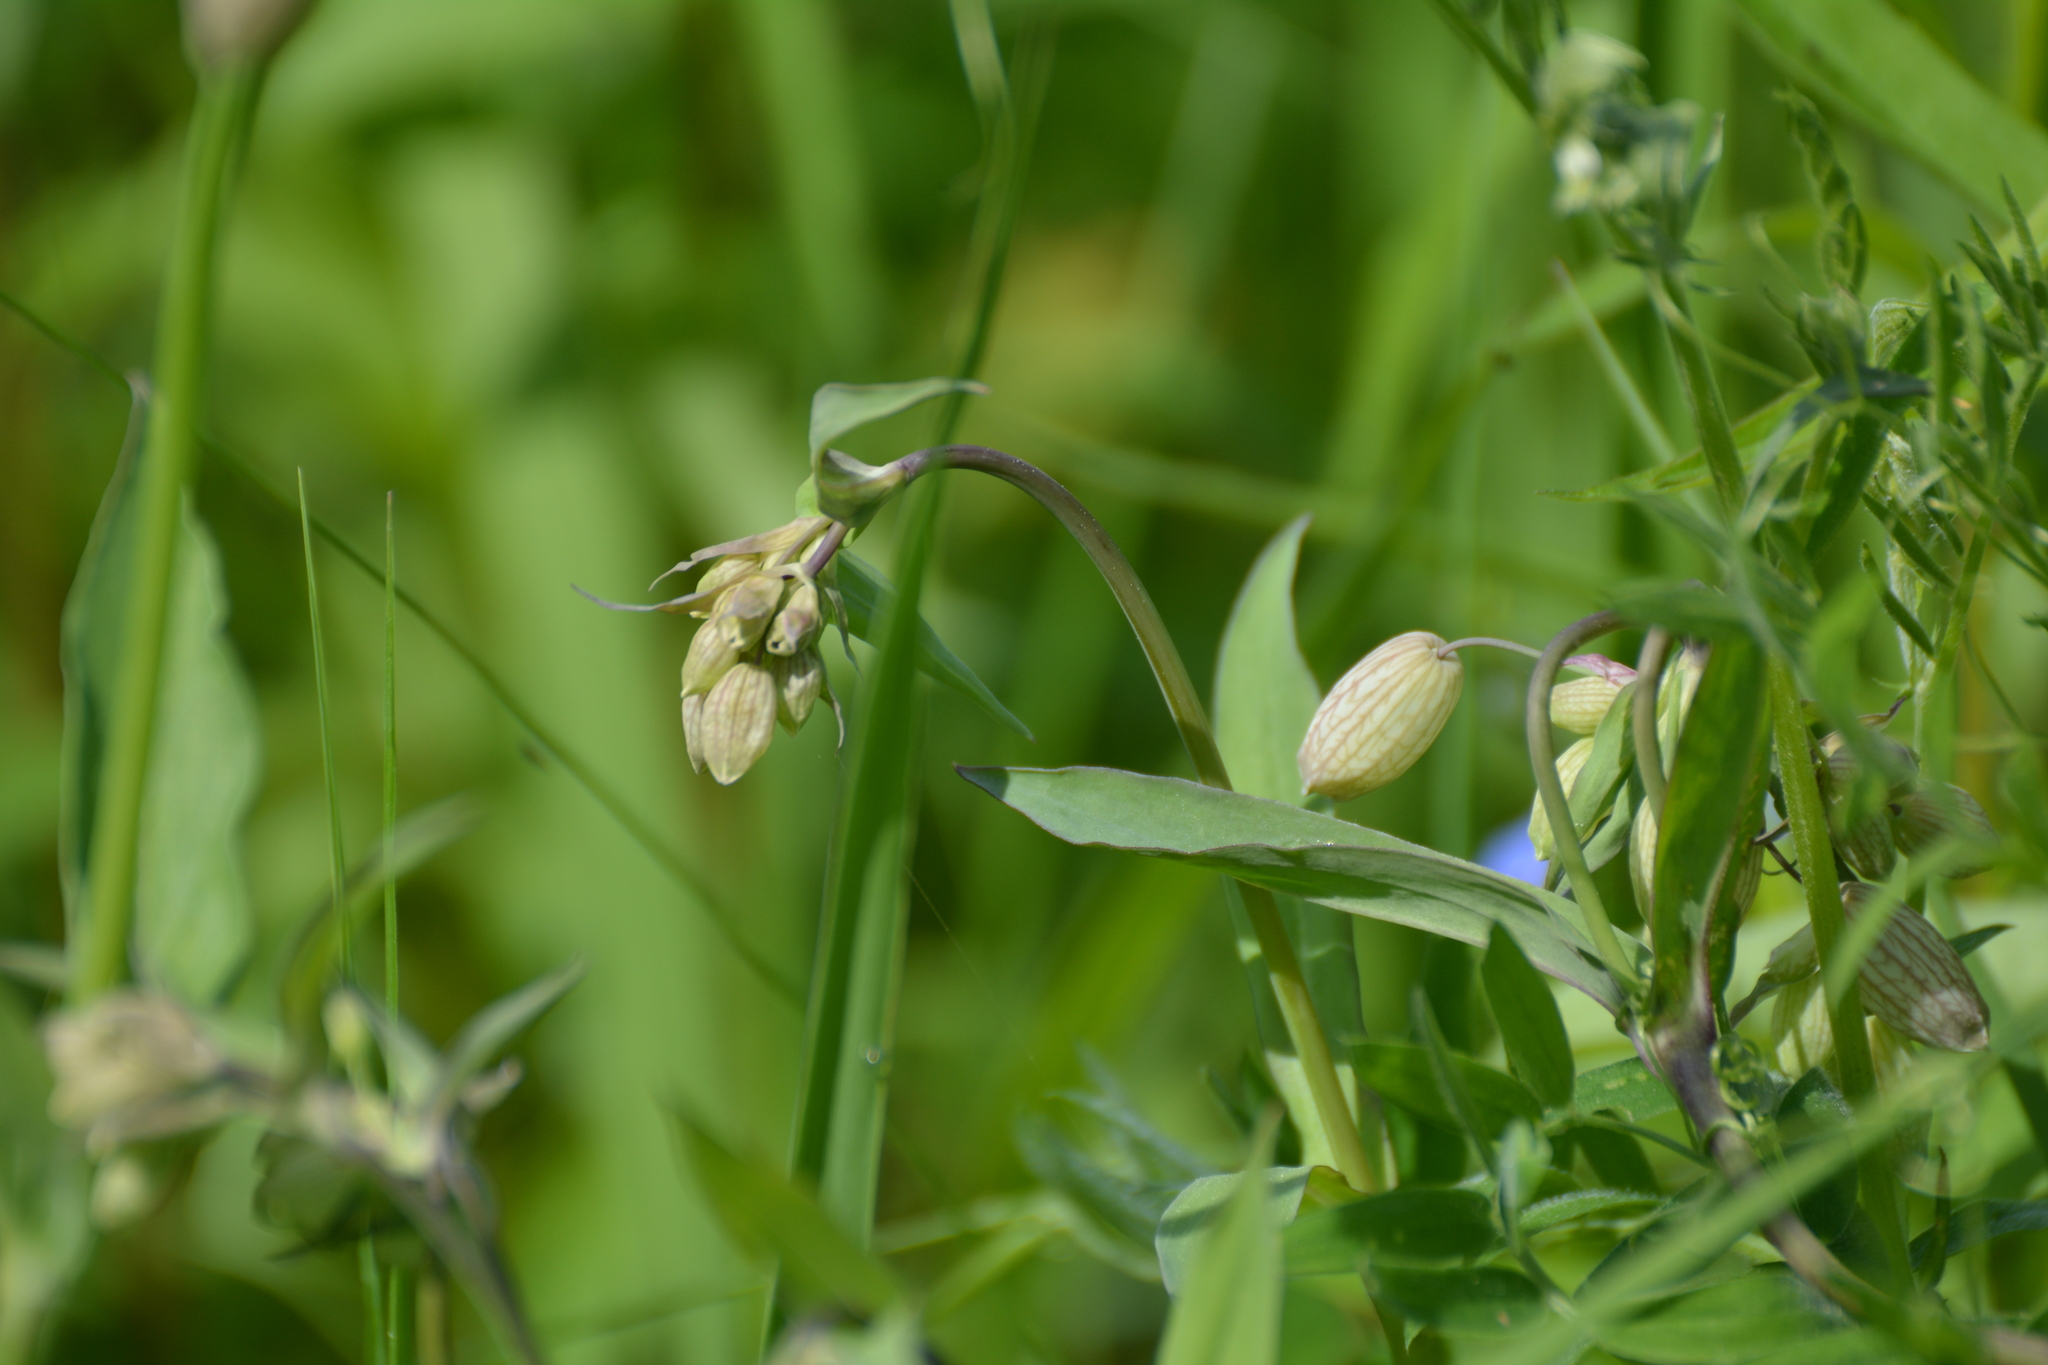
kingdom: Plantae
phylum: Tracheophyta
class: Magnoliopsida
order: Caryophyllales
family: Caryophyllaceae
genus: Silene
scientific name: Silene vulgaris
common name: Bladder campion
